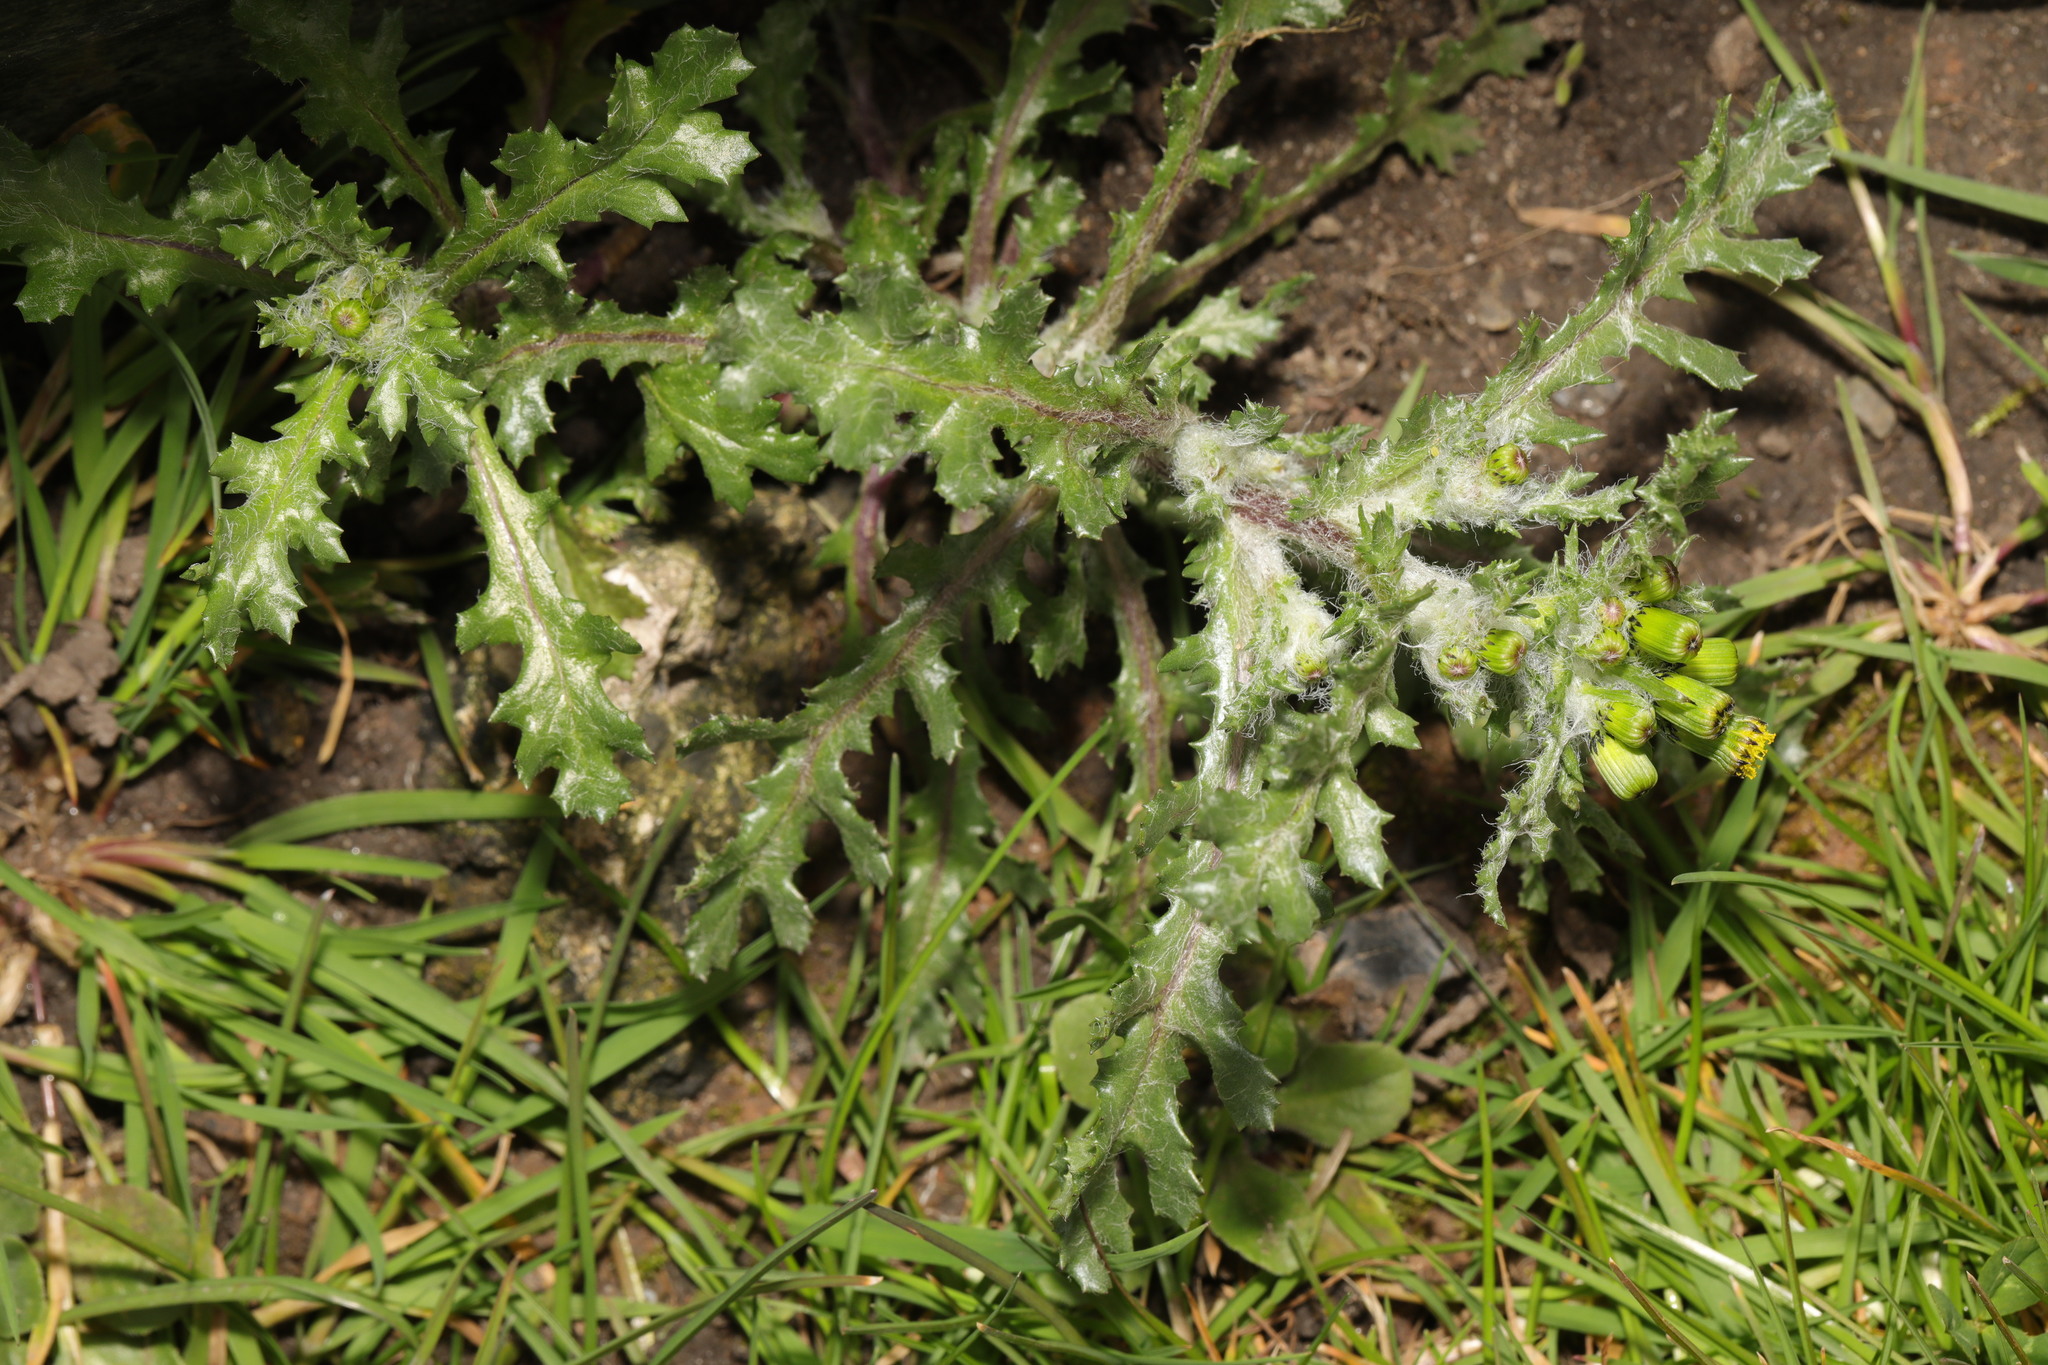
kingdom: Plantae
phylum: Tracheophyta
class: Magnoliopsida
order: Asterales
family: Asteraceae
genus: Senecio
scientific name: Senecio vulgaris
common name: Old-man-in-the-spring
